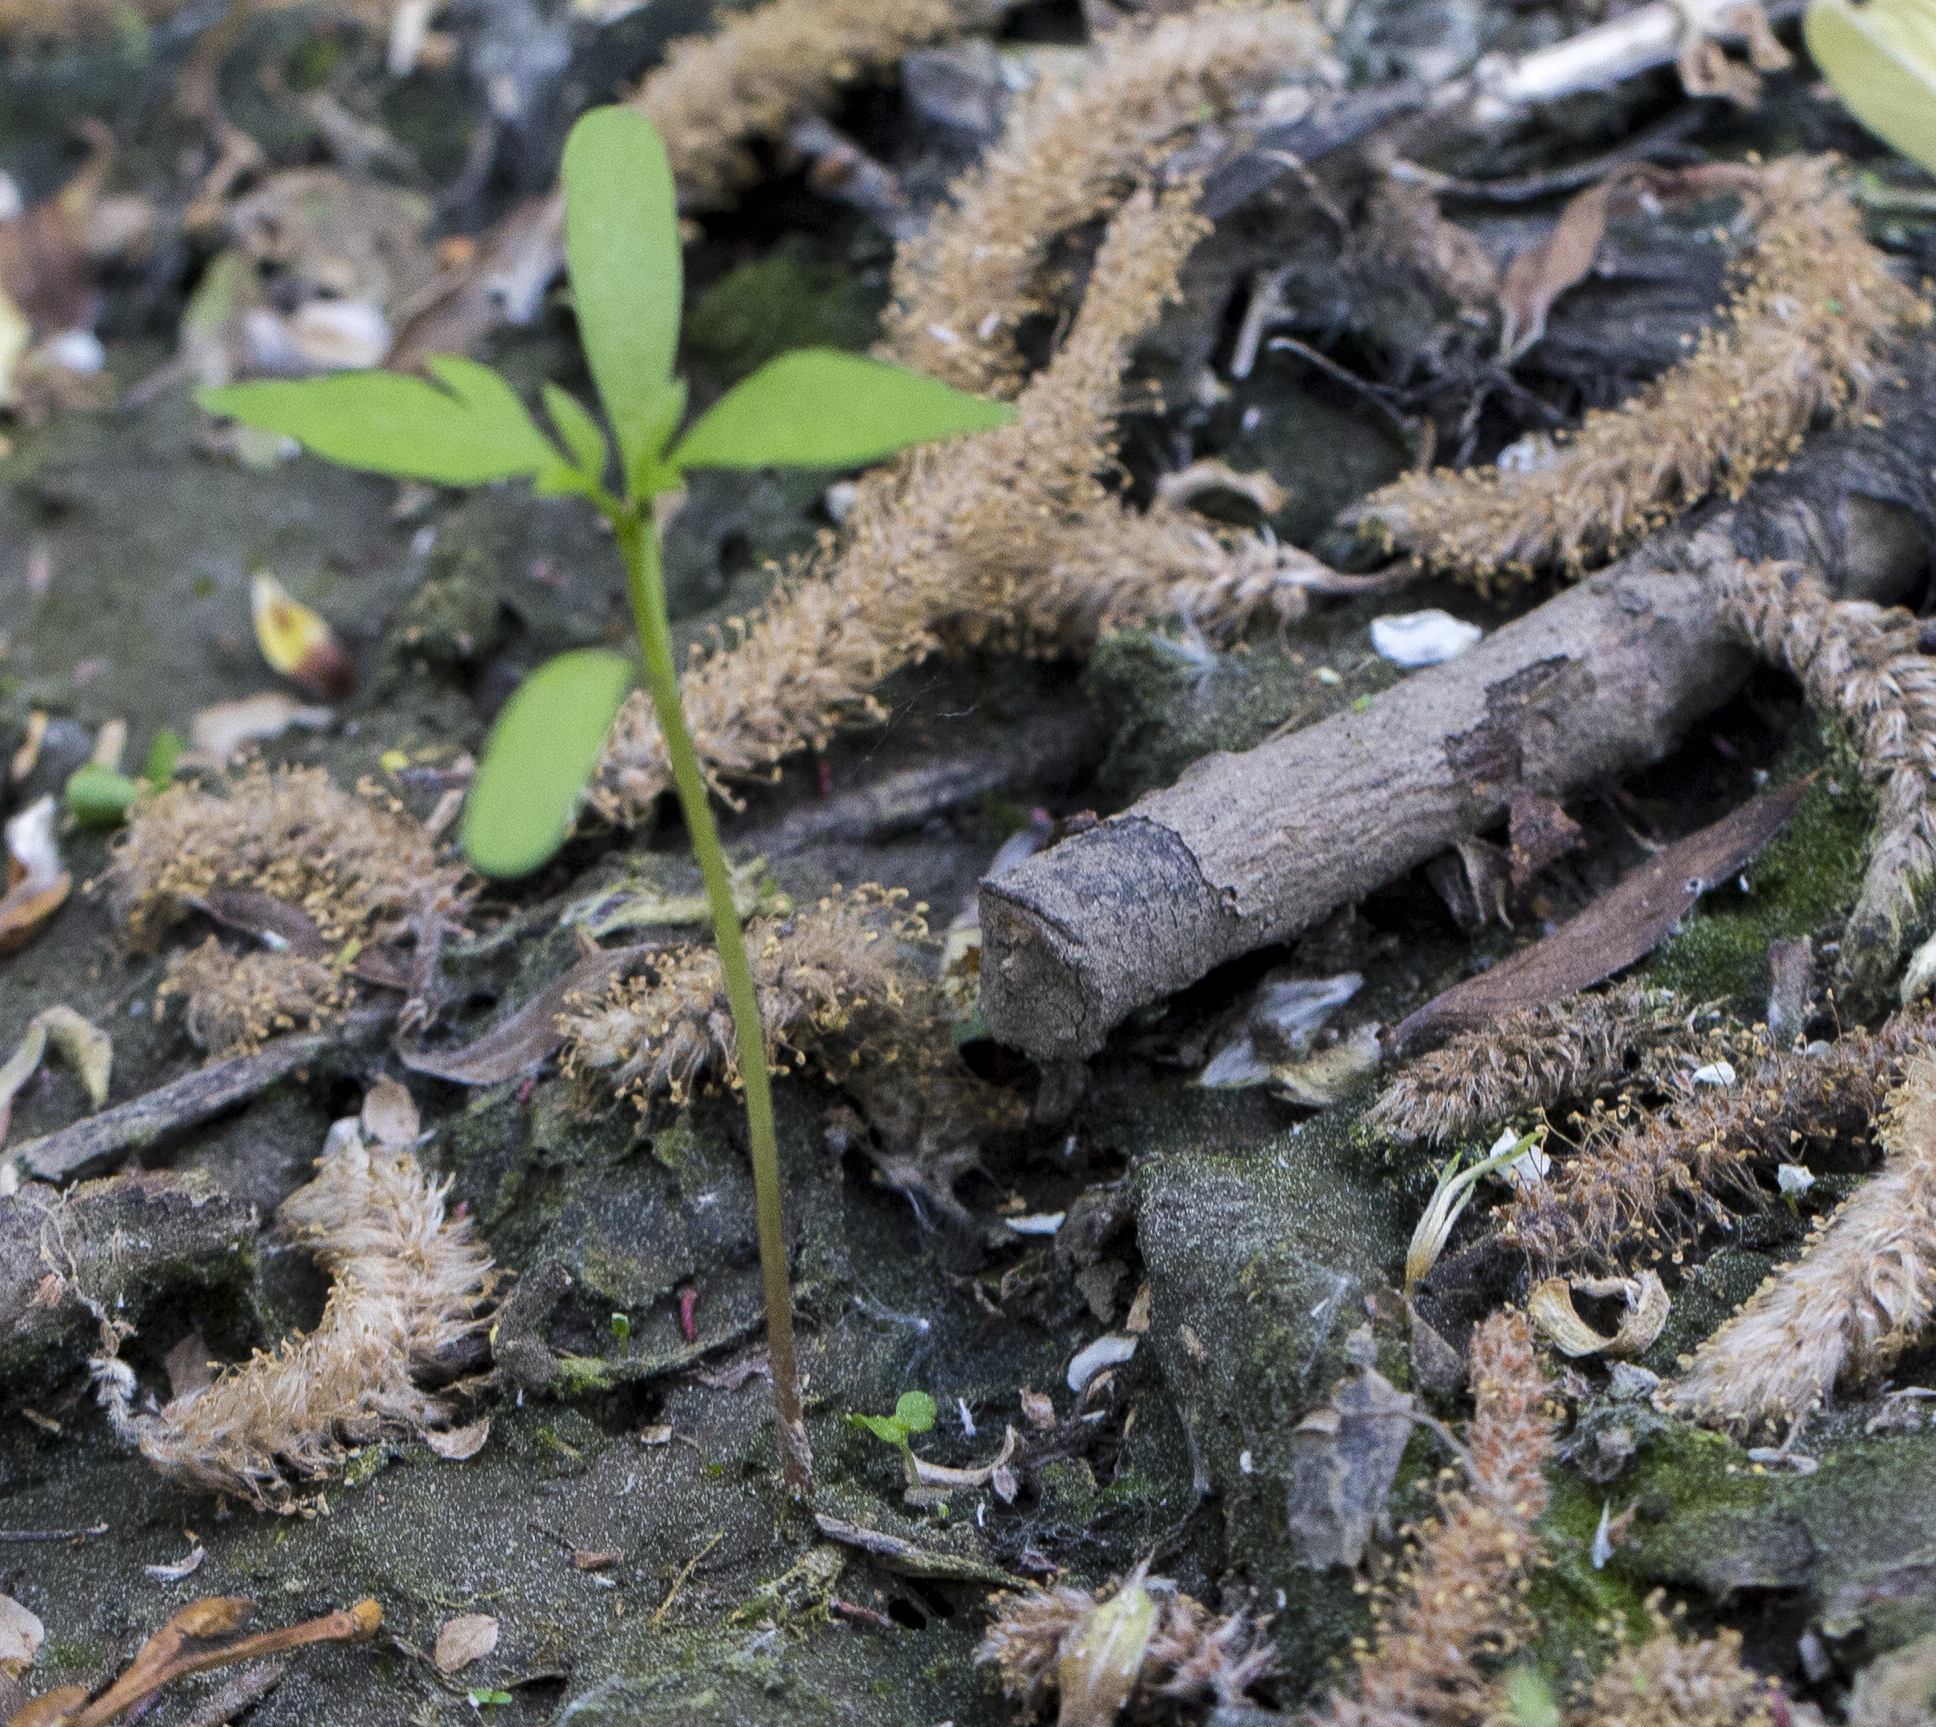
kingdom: Plantae
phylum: Tracheophyta
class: Magnoliopsida
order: Asterales
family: Asteraceae
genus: Bidens
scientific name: Bidens frondosa
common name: Beggarticks
